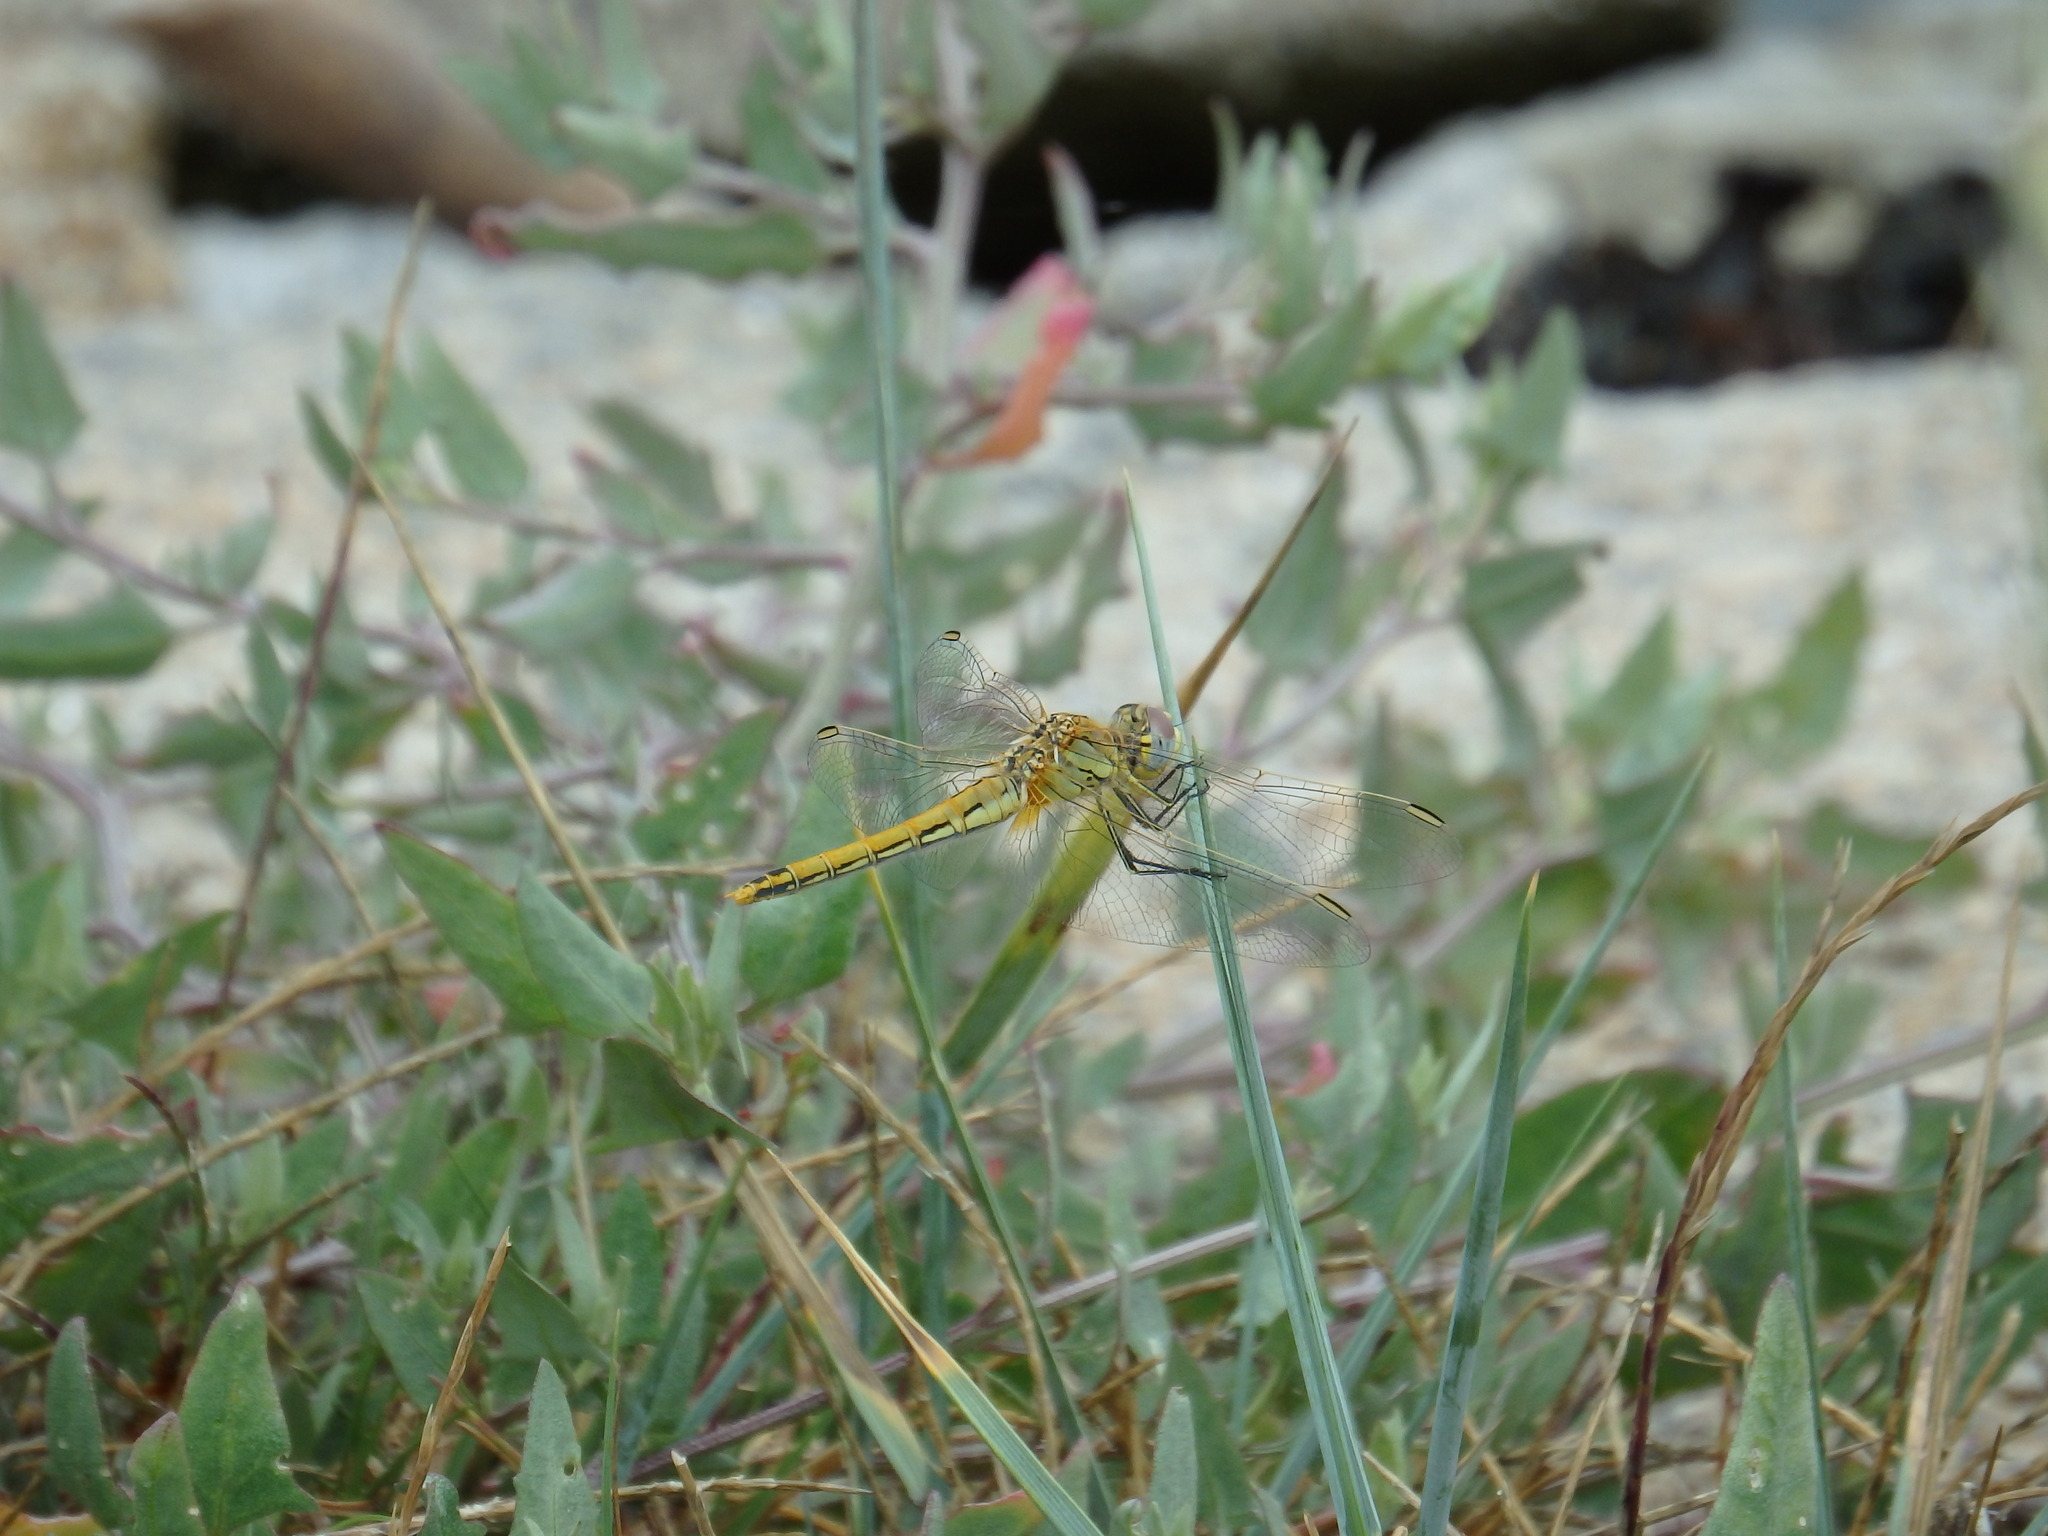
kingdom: Animalia
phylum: Arthropoda
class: Insecta
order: Odonata
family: Libellulidae
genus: Sympetrum
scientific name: Sympetrum fonscolombii
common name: Red-veined darter
